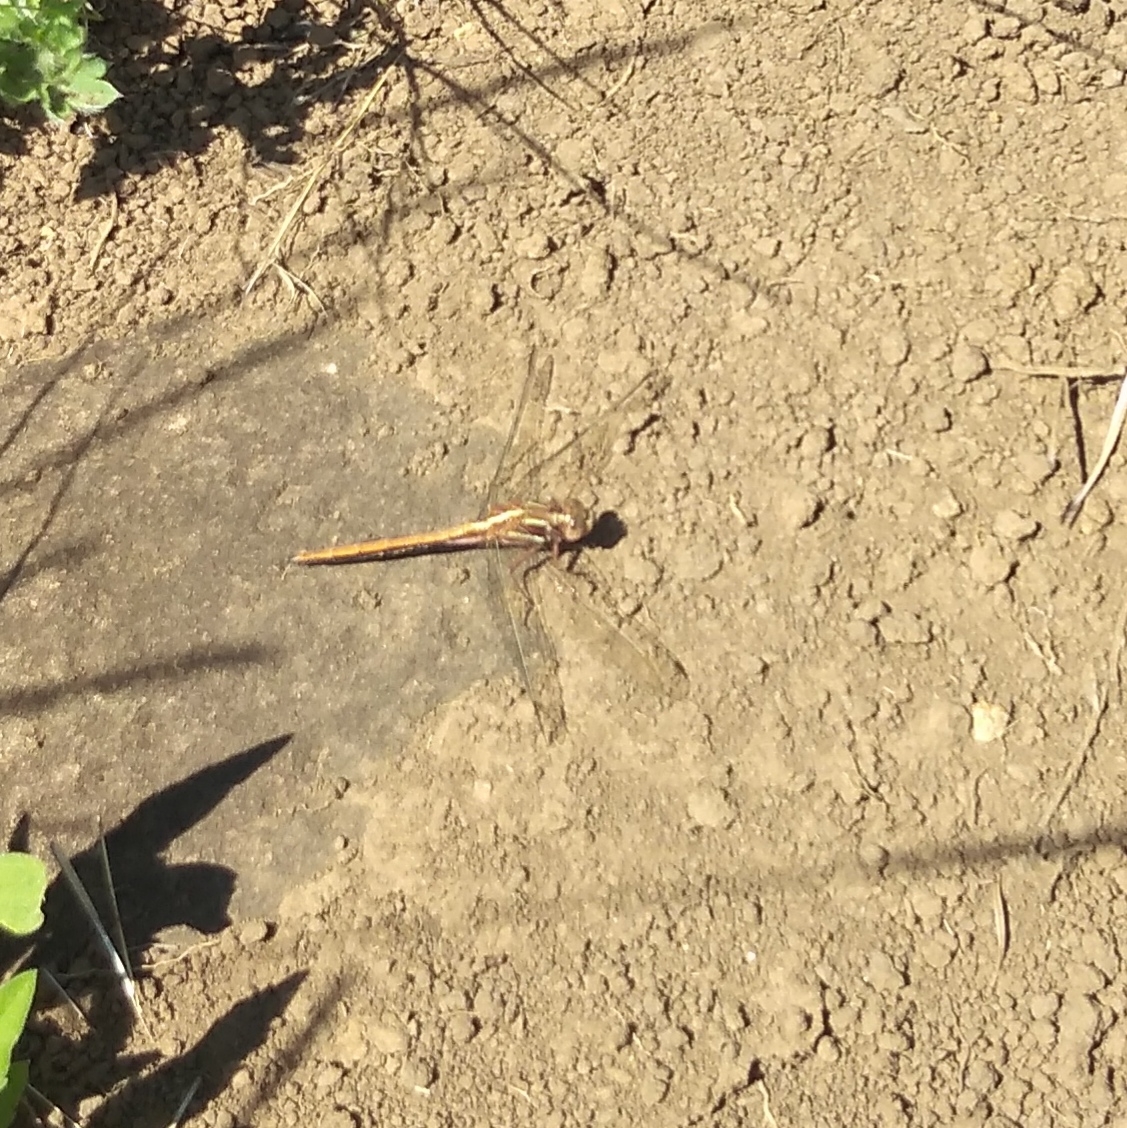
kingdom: Animalia
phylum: Arthropoda
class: Insecta
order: Odonata
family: Libellulidae
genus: Orthetrum
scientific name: Orthetrum caffrum
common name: Two-striped skimmer
